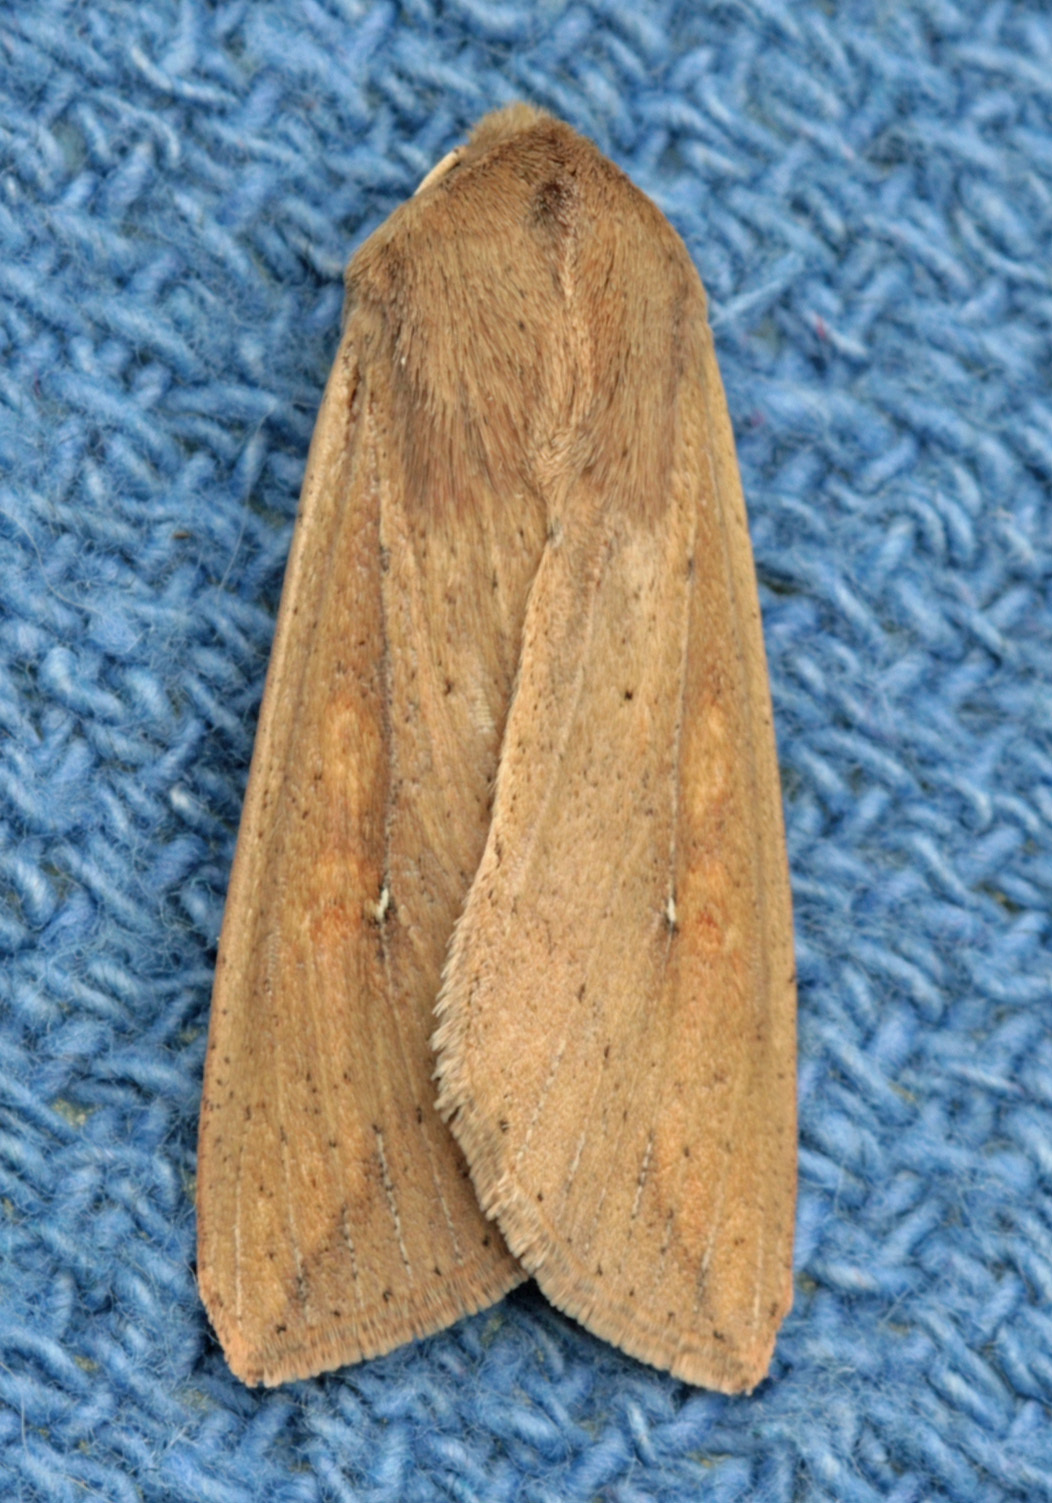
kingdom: Animalia
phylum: Arthropoda
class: Insecta
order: Lepidoptera
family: Noctuidae
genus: Mythimna
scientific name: Mythimna unipuncta
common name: White-speck
